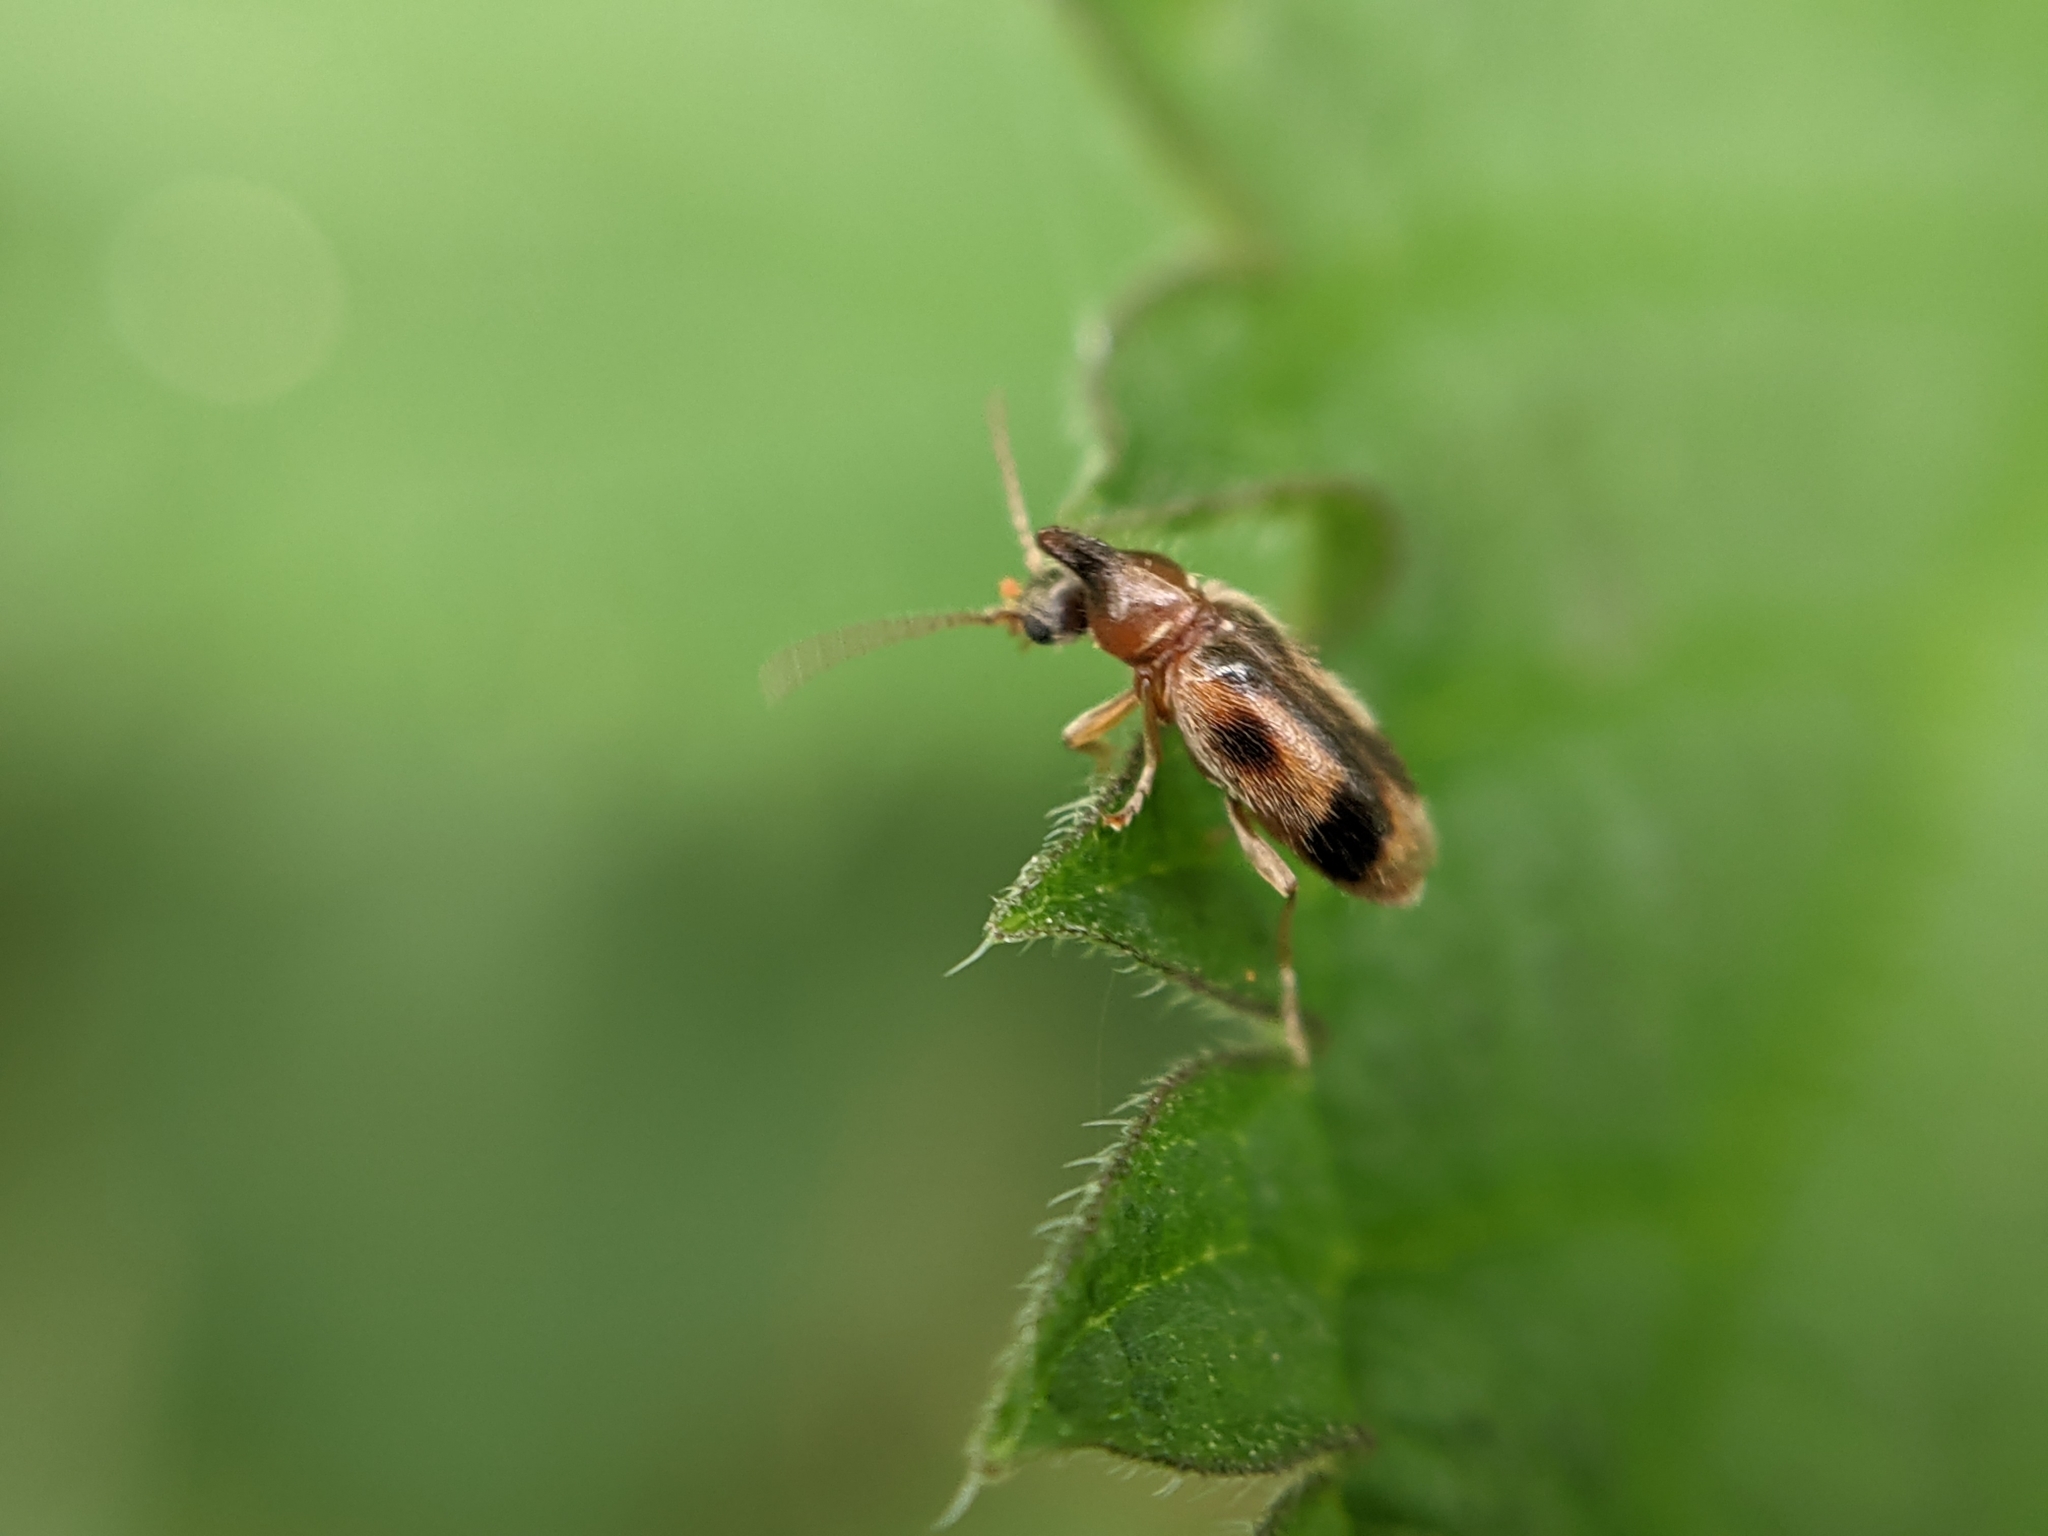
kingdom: Animalia
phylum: Arthropoda
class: Insecta
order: Coleoptera
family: Anthicidae
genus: Notoxus
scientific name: Notoxus monoceros
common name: Monoceros beetle
